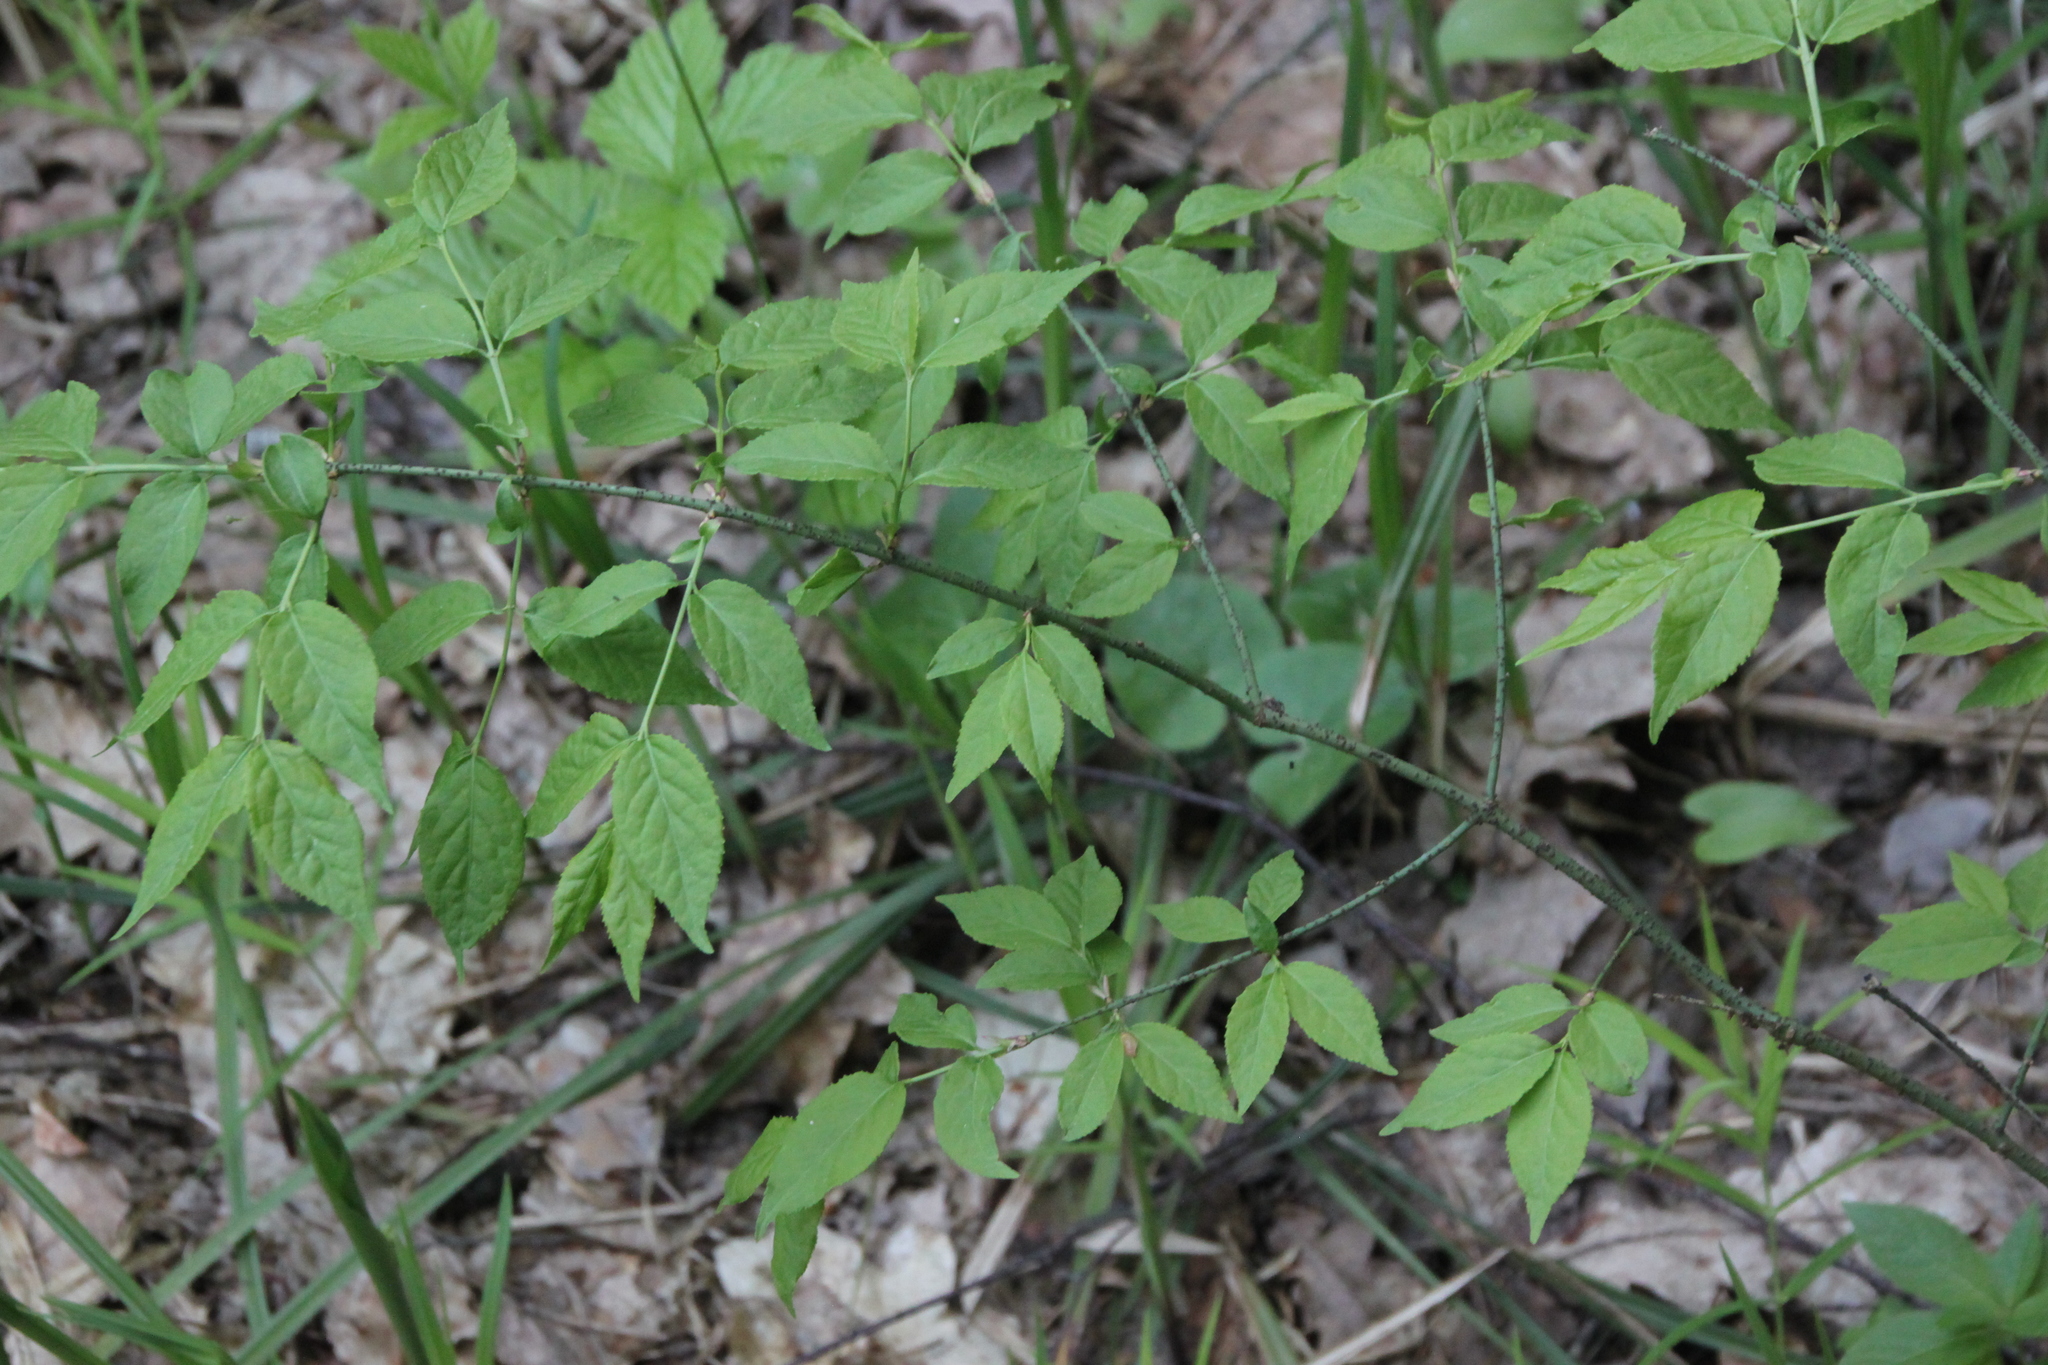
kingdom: Plantae
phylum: Tracheophyta
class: Magnoliopsida
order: Celastrales
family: Celastraceae
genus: Euonymus
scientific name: Euonymus verrucosus
